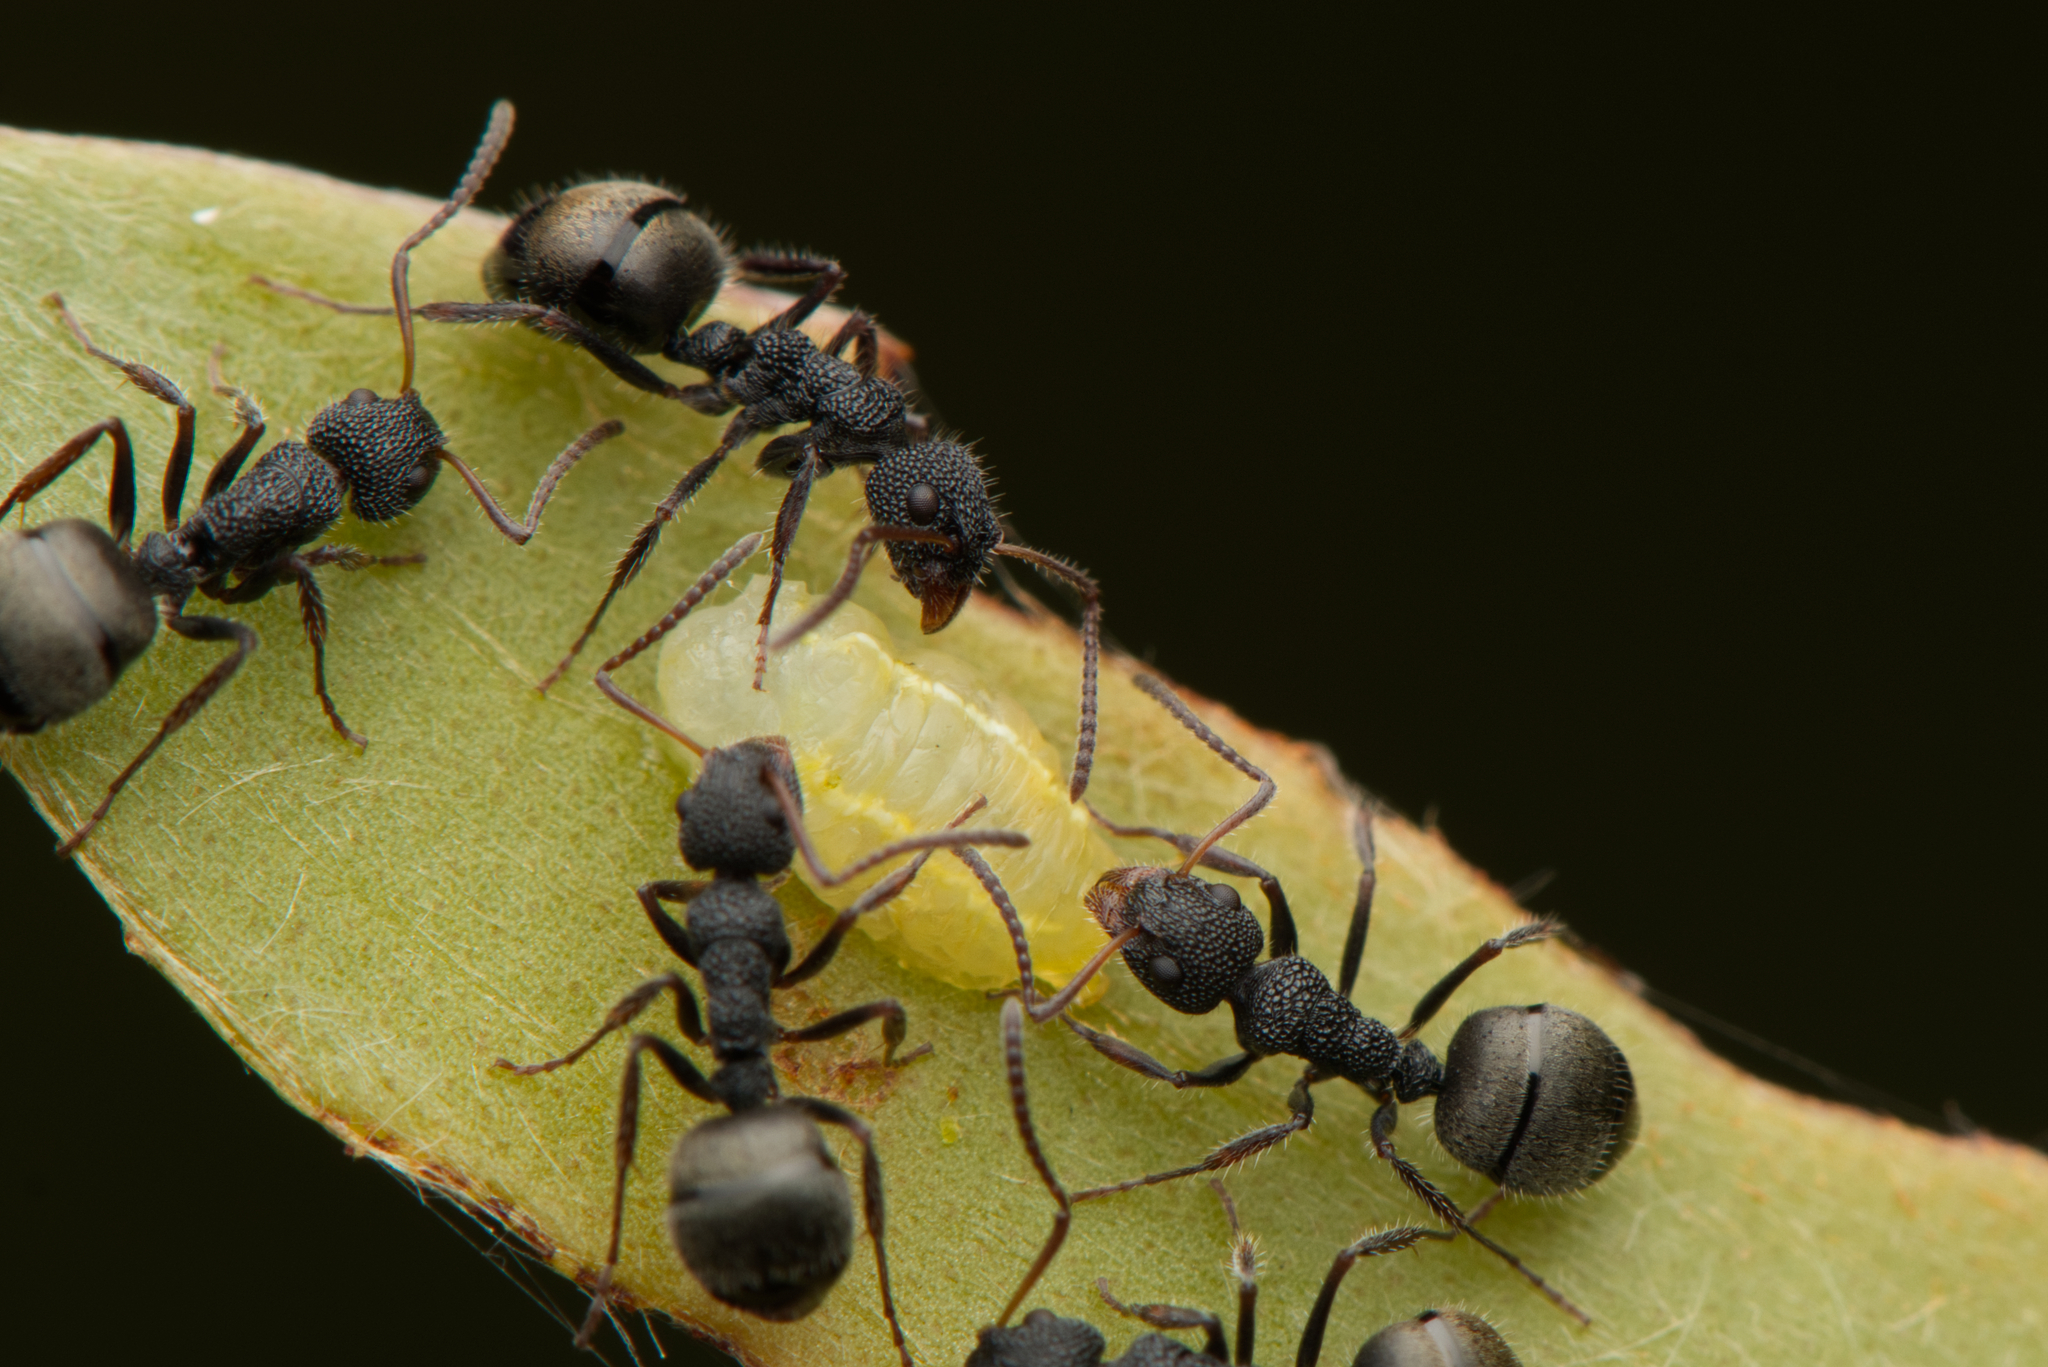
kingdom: Animalia
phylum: Arthropoda
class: Insecta
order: Hymenoptera
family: Formicidae
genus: Dolichoderus
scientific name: Dolichoderus scrobiculatus
